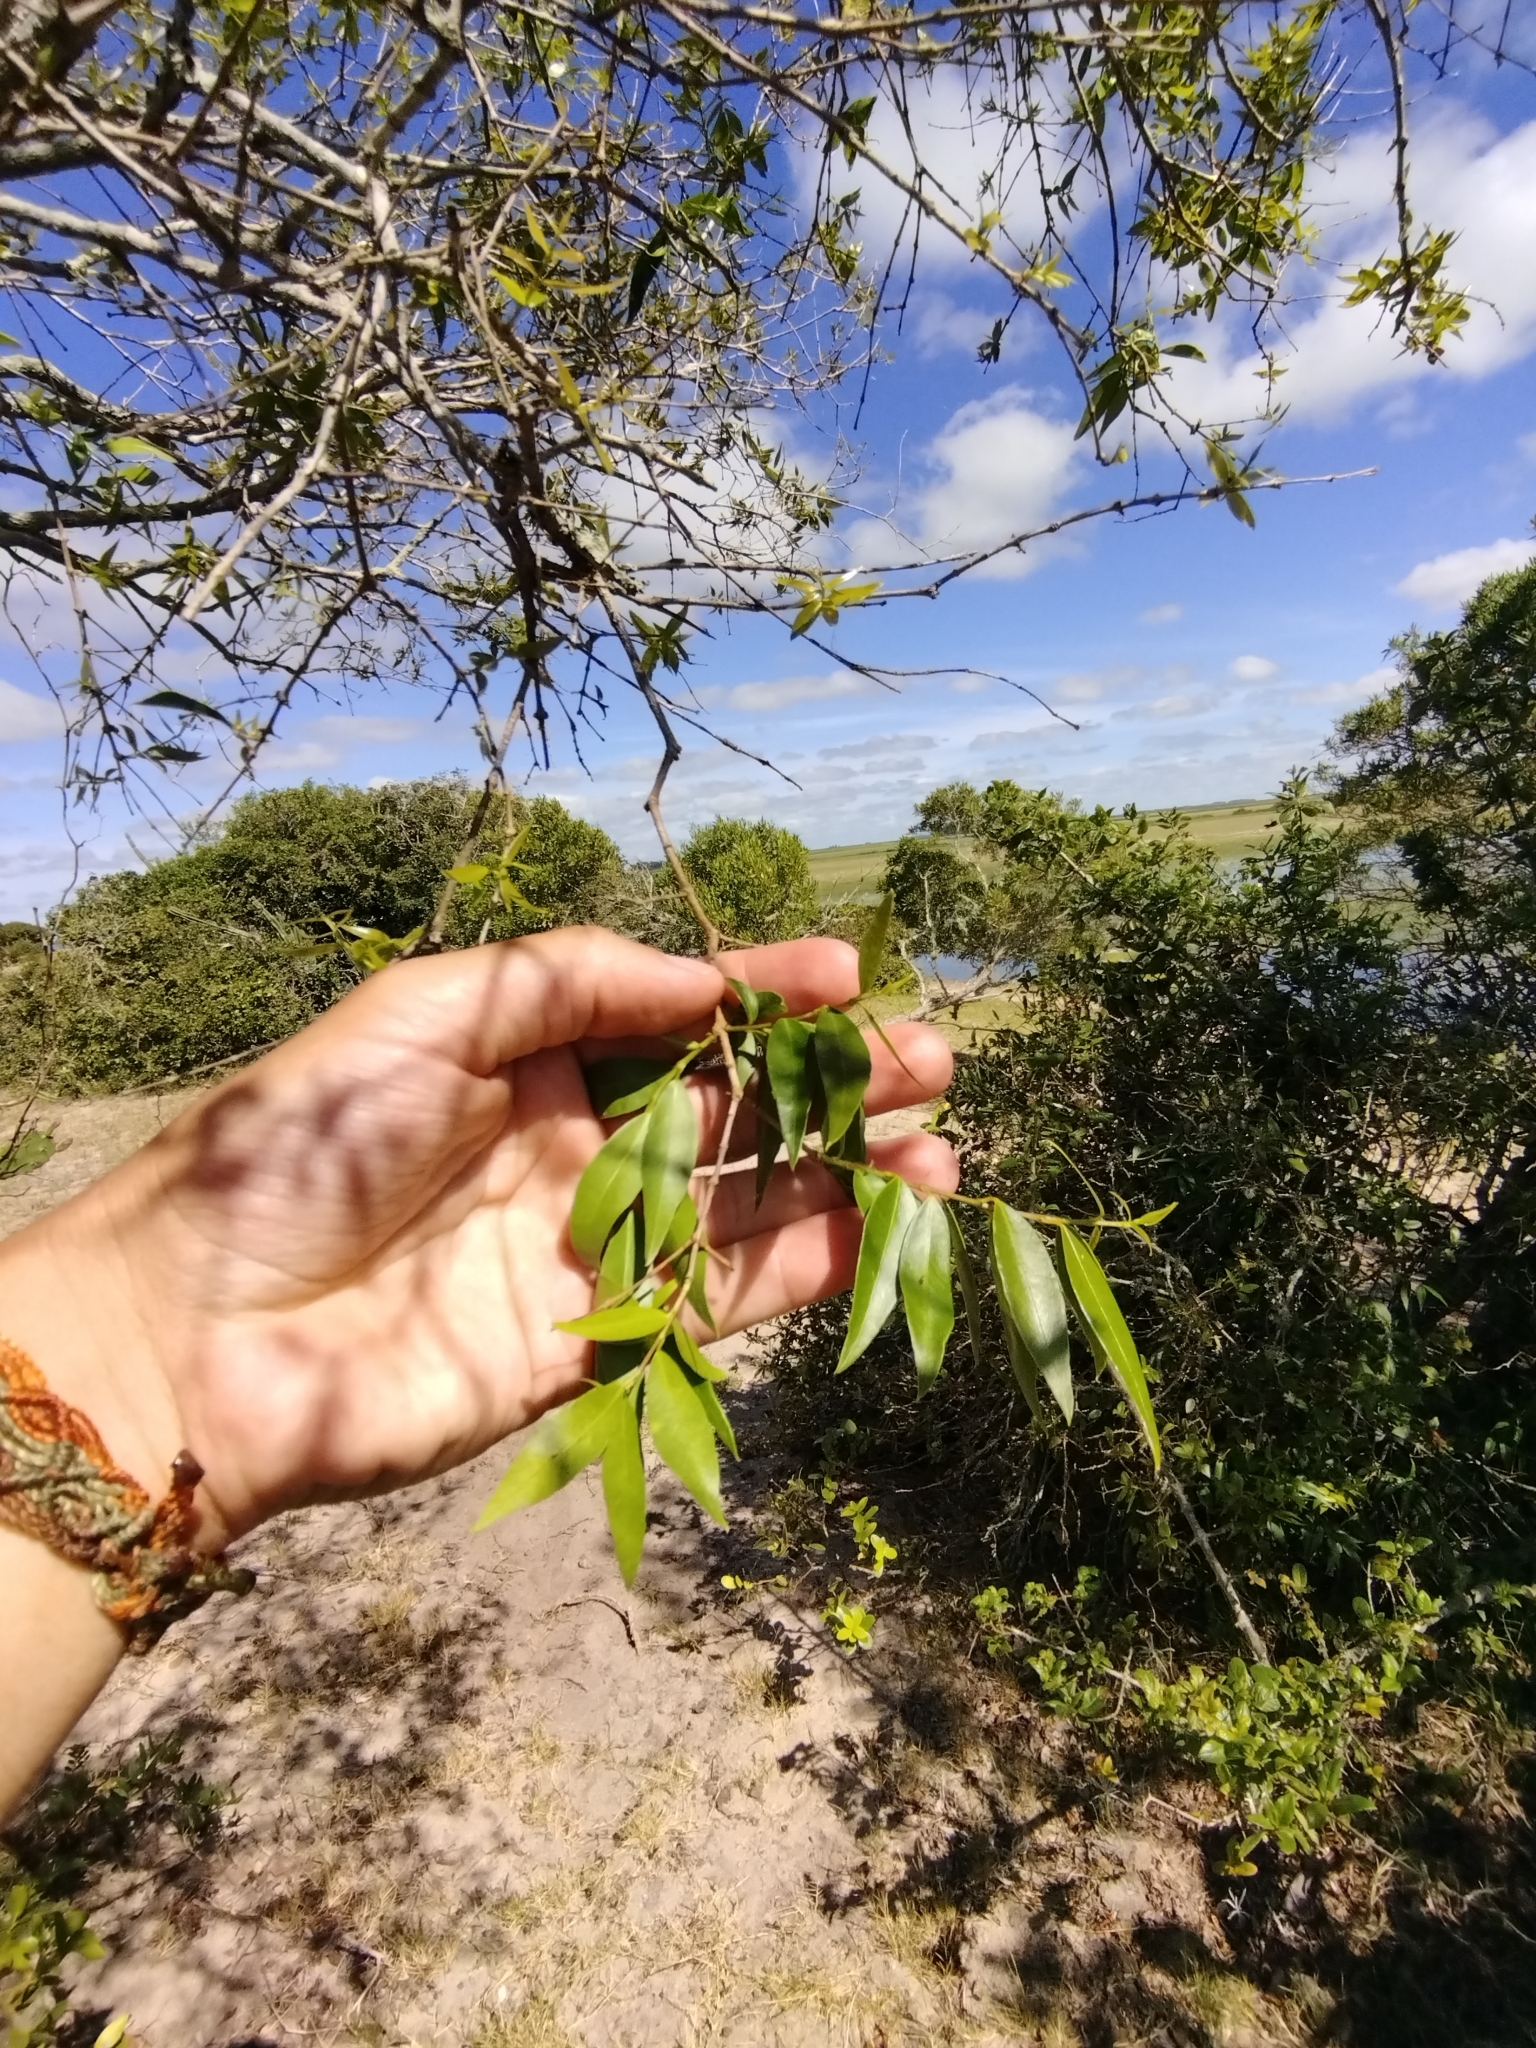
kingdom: Plantae
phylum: Tracheophyta
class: Magnoliopsida
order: Myrtales
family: Myrtaceae
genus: Blepharocalyx
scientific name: Blepharocalyx salicifolius
